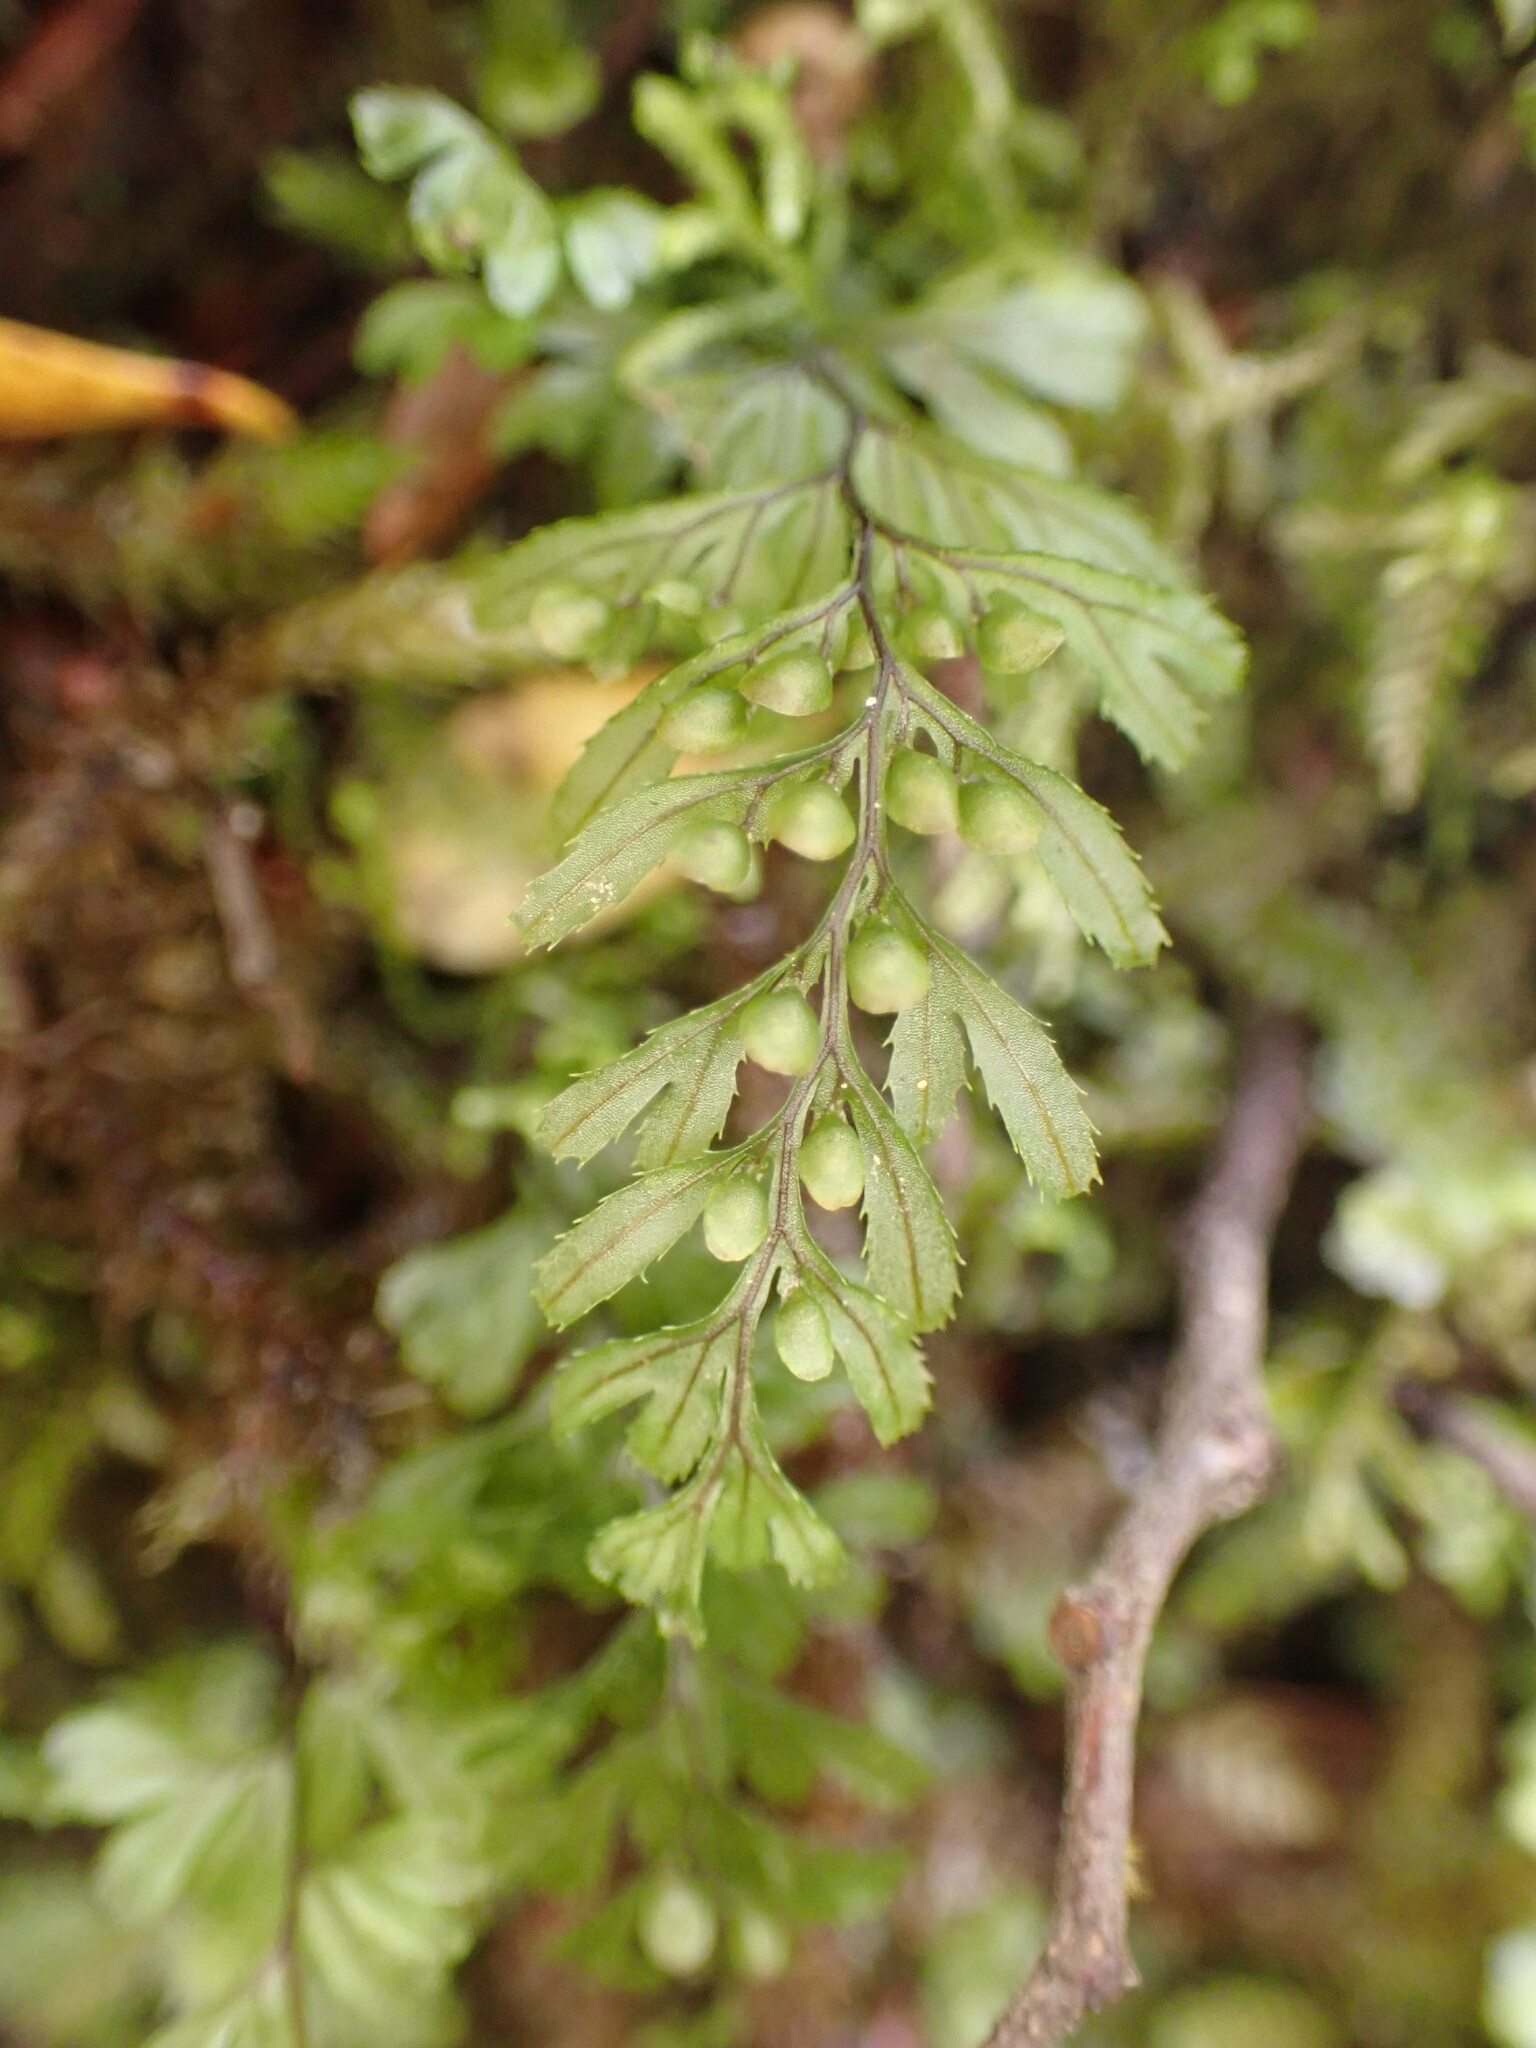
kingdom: Plantae
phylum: Tracheophyta
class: Polypodiopsida
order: Hymenophyllales
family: Hymenophyllaceae
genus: Hymenophyllum
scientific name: Hymenophyllum peltatum
